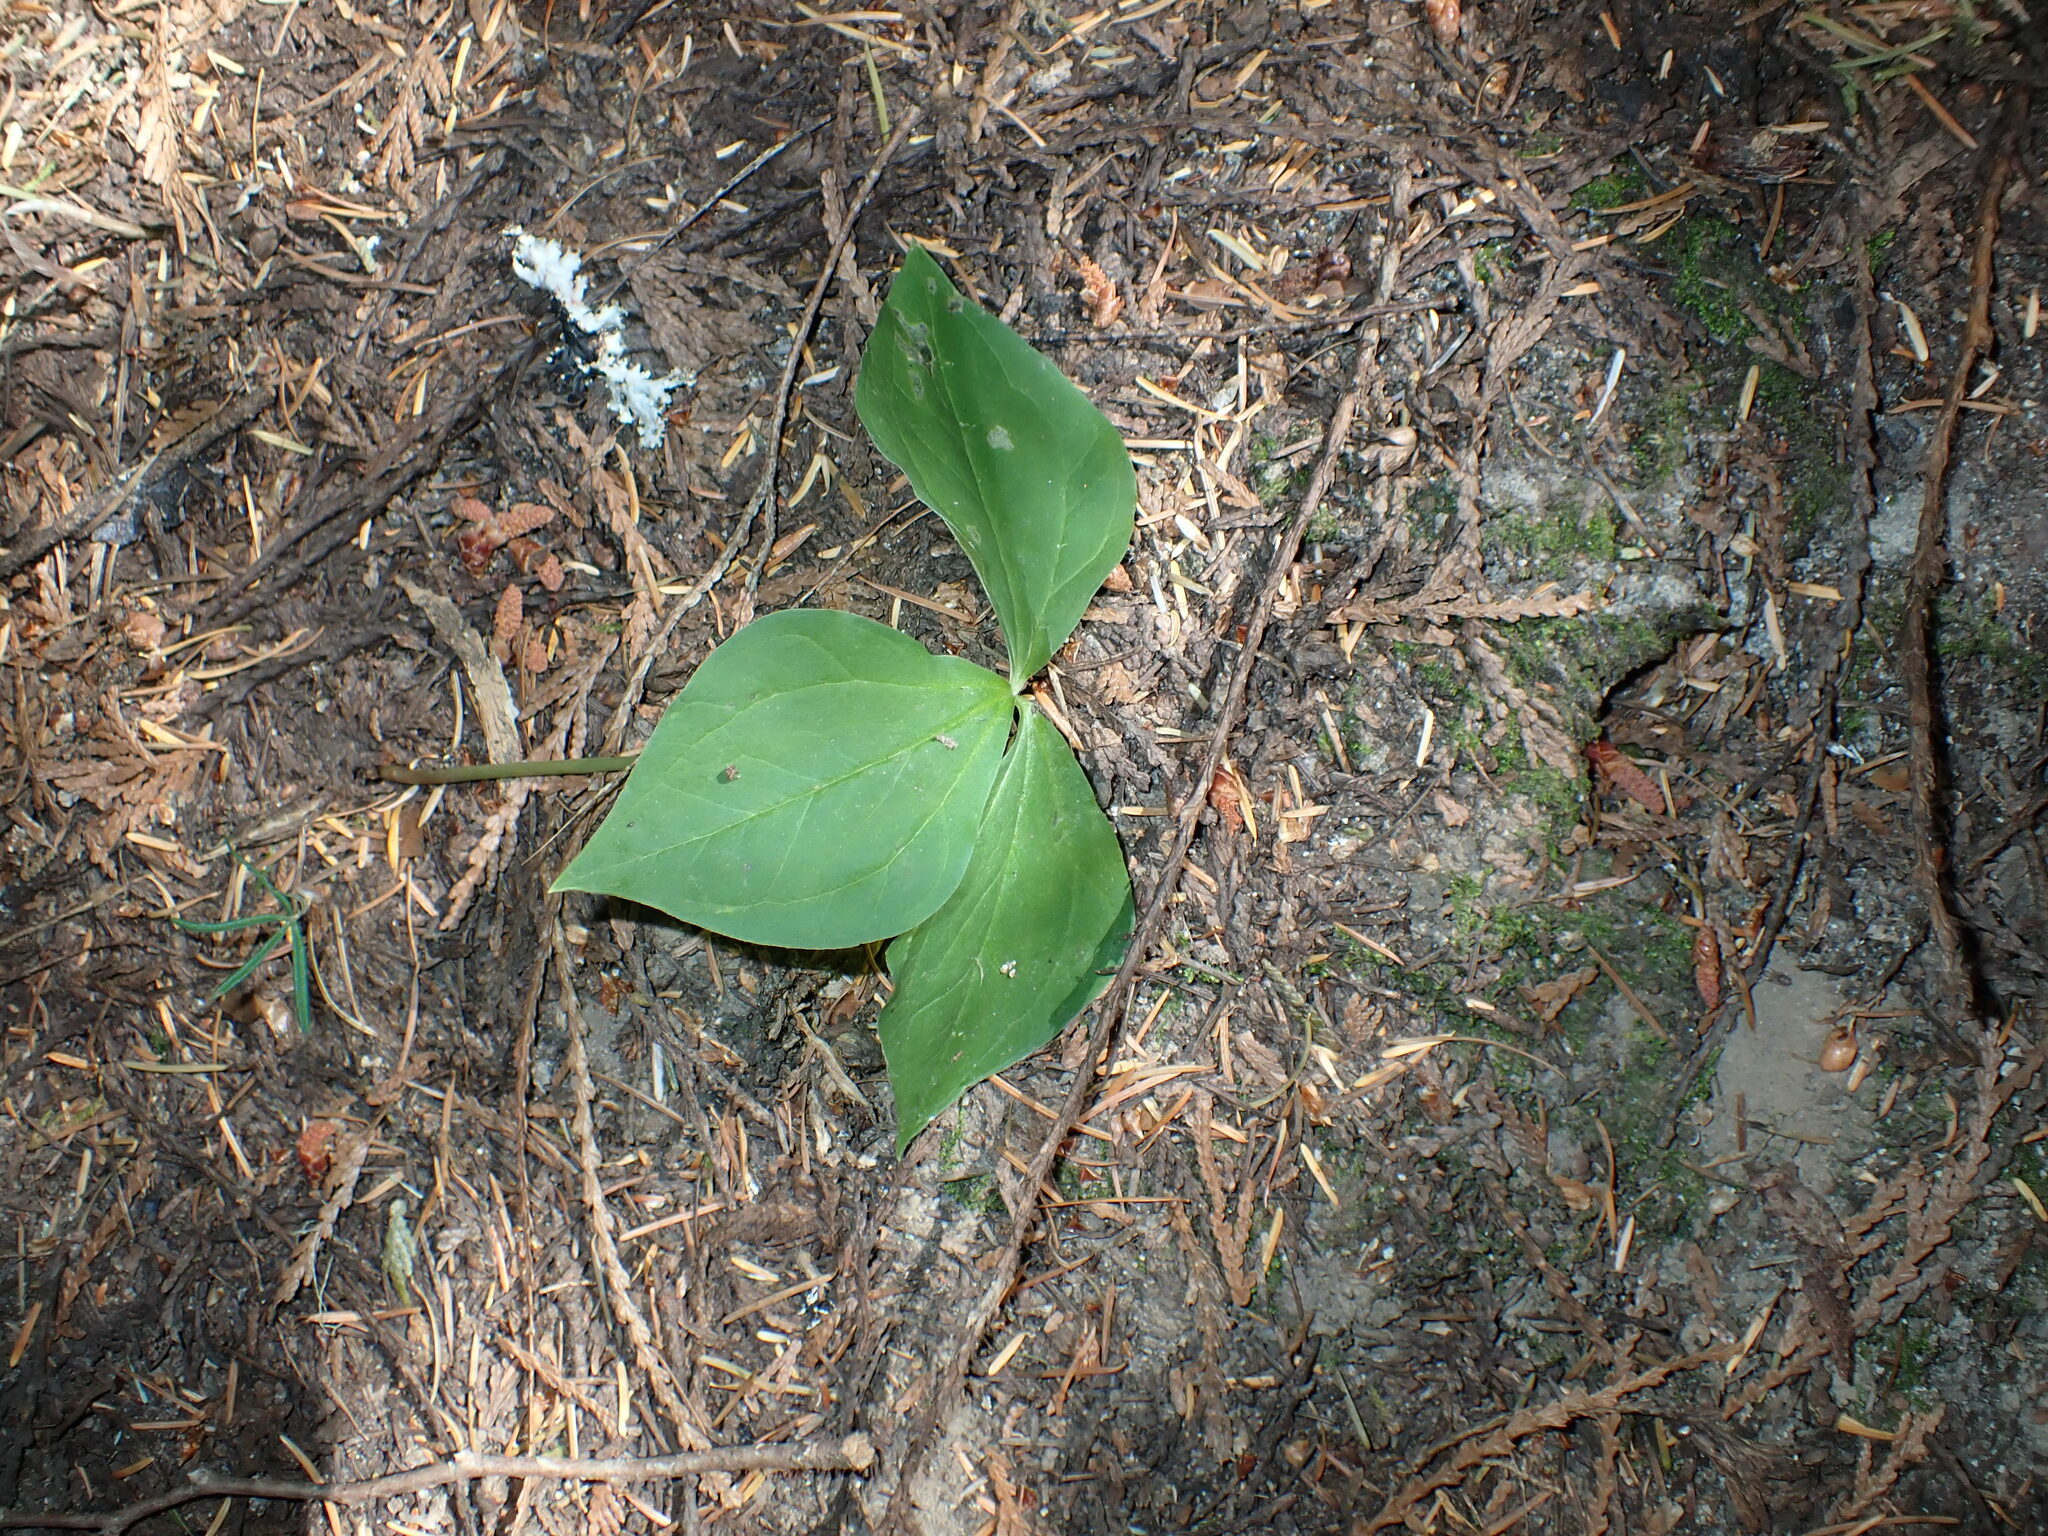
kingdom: Plantae
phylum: Tracheophyta
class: Liliopsida
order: Liliales
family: Melanthiaceae
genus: Trillium
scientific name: Trillium ovatum
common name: Pacific trillium
